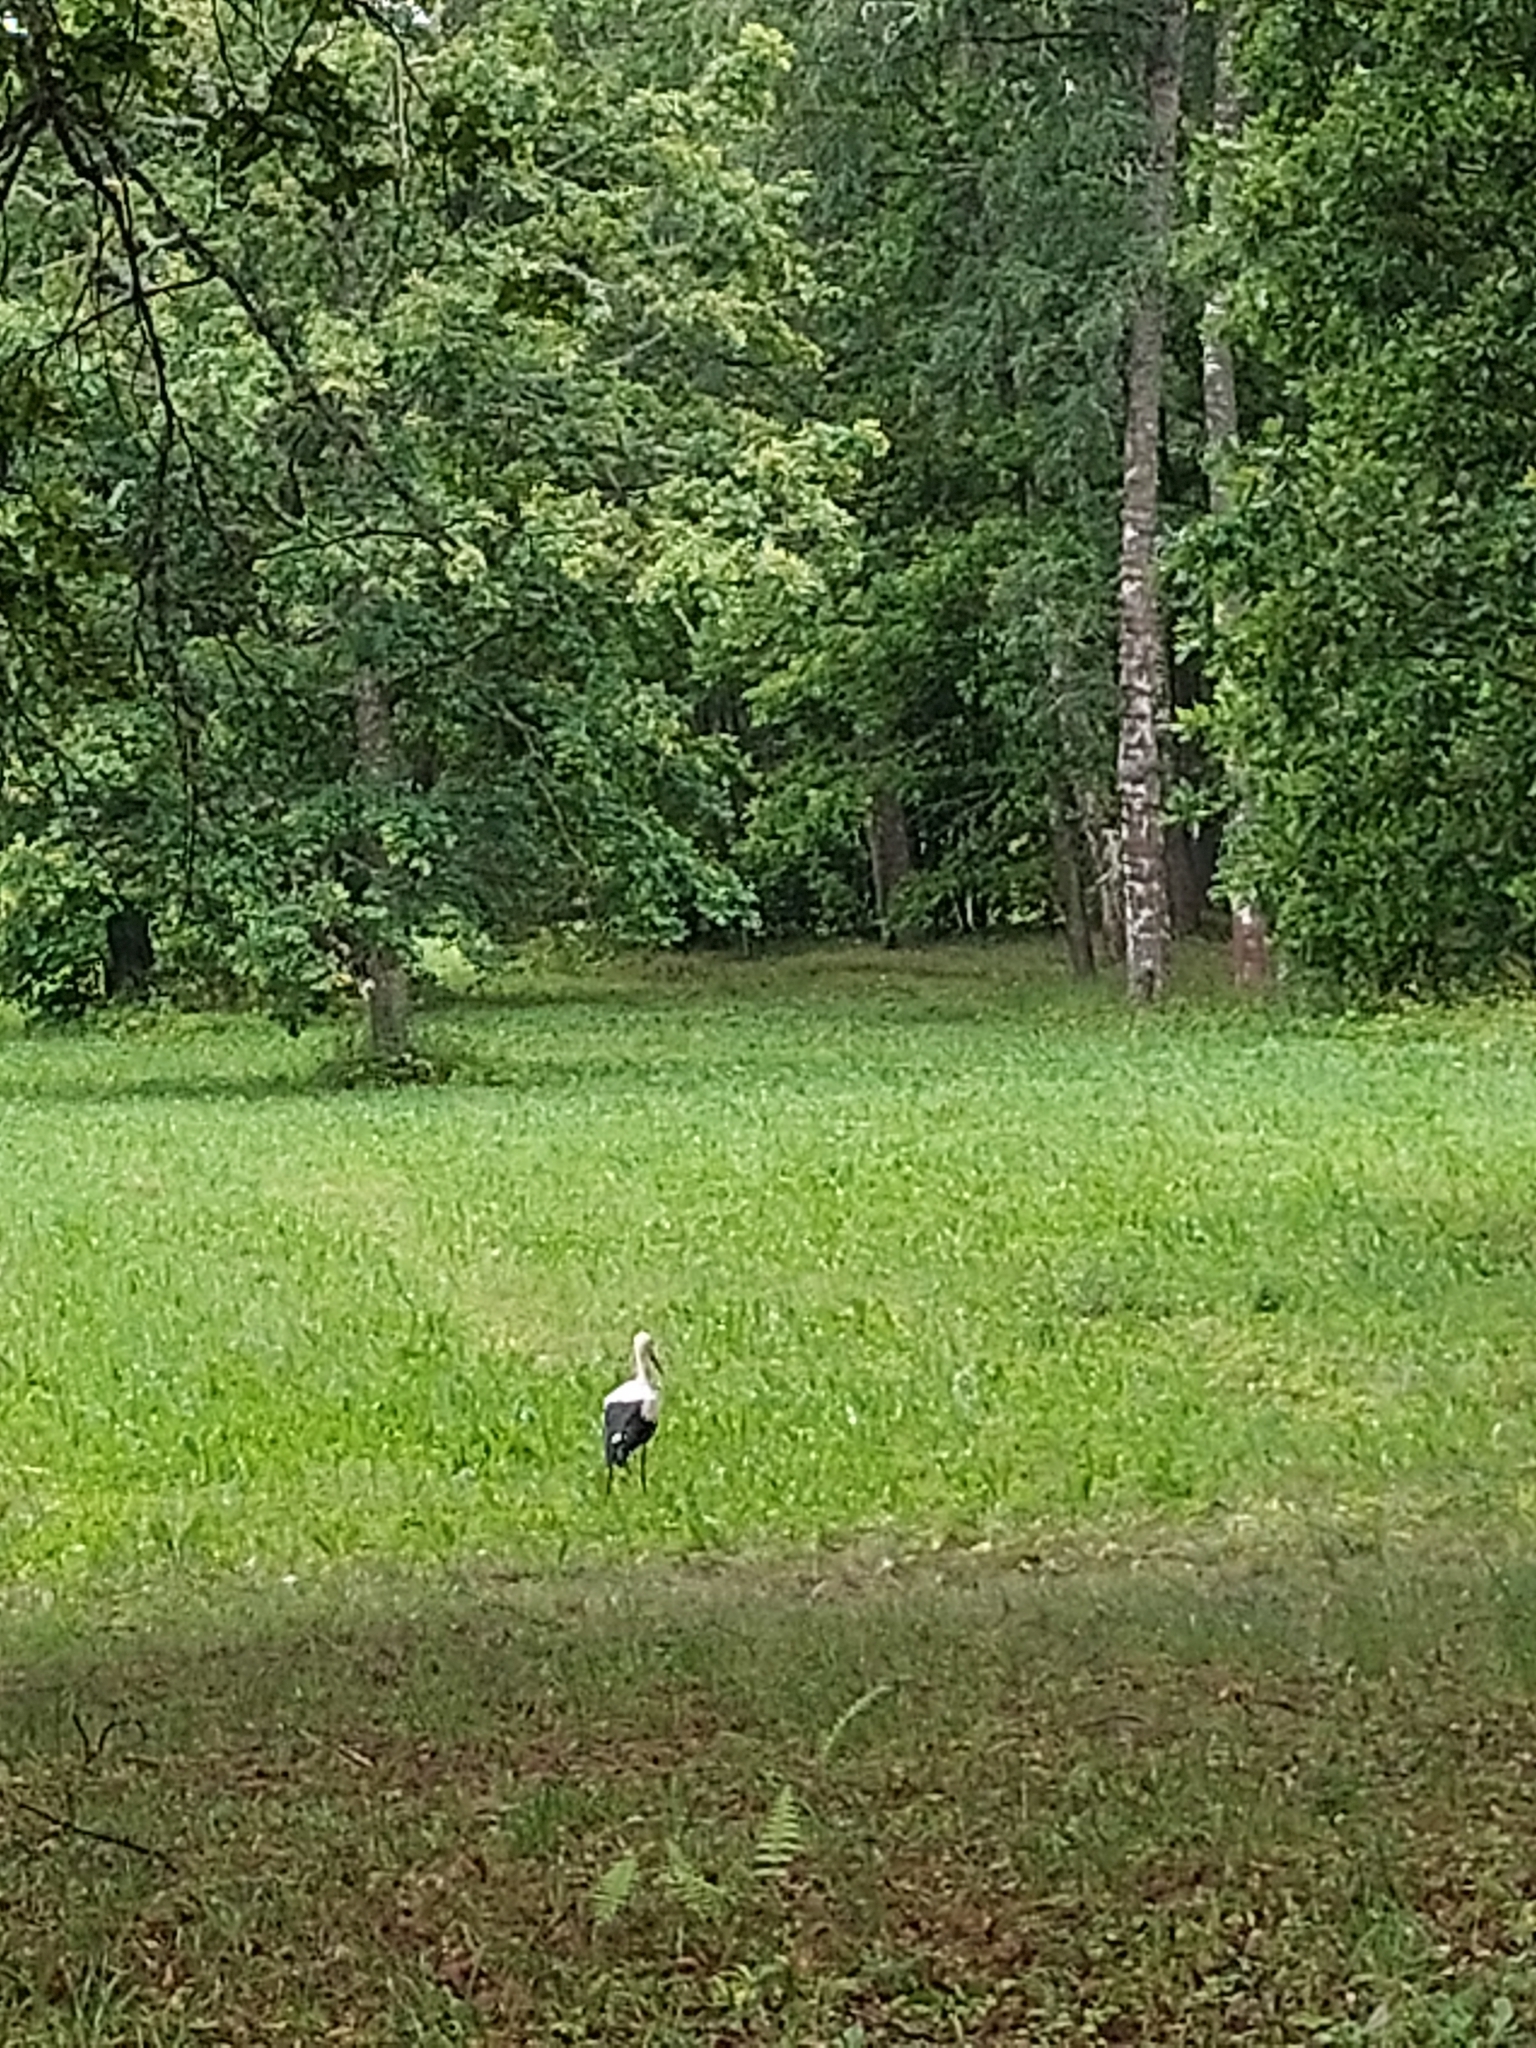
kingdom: Animalia
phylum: Chordata
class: Aves
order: Ciconiiformes
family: Ciconiidae
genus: Ciconia
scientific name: Ciconia ciconia
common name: White stork
